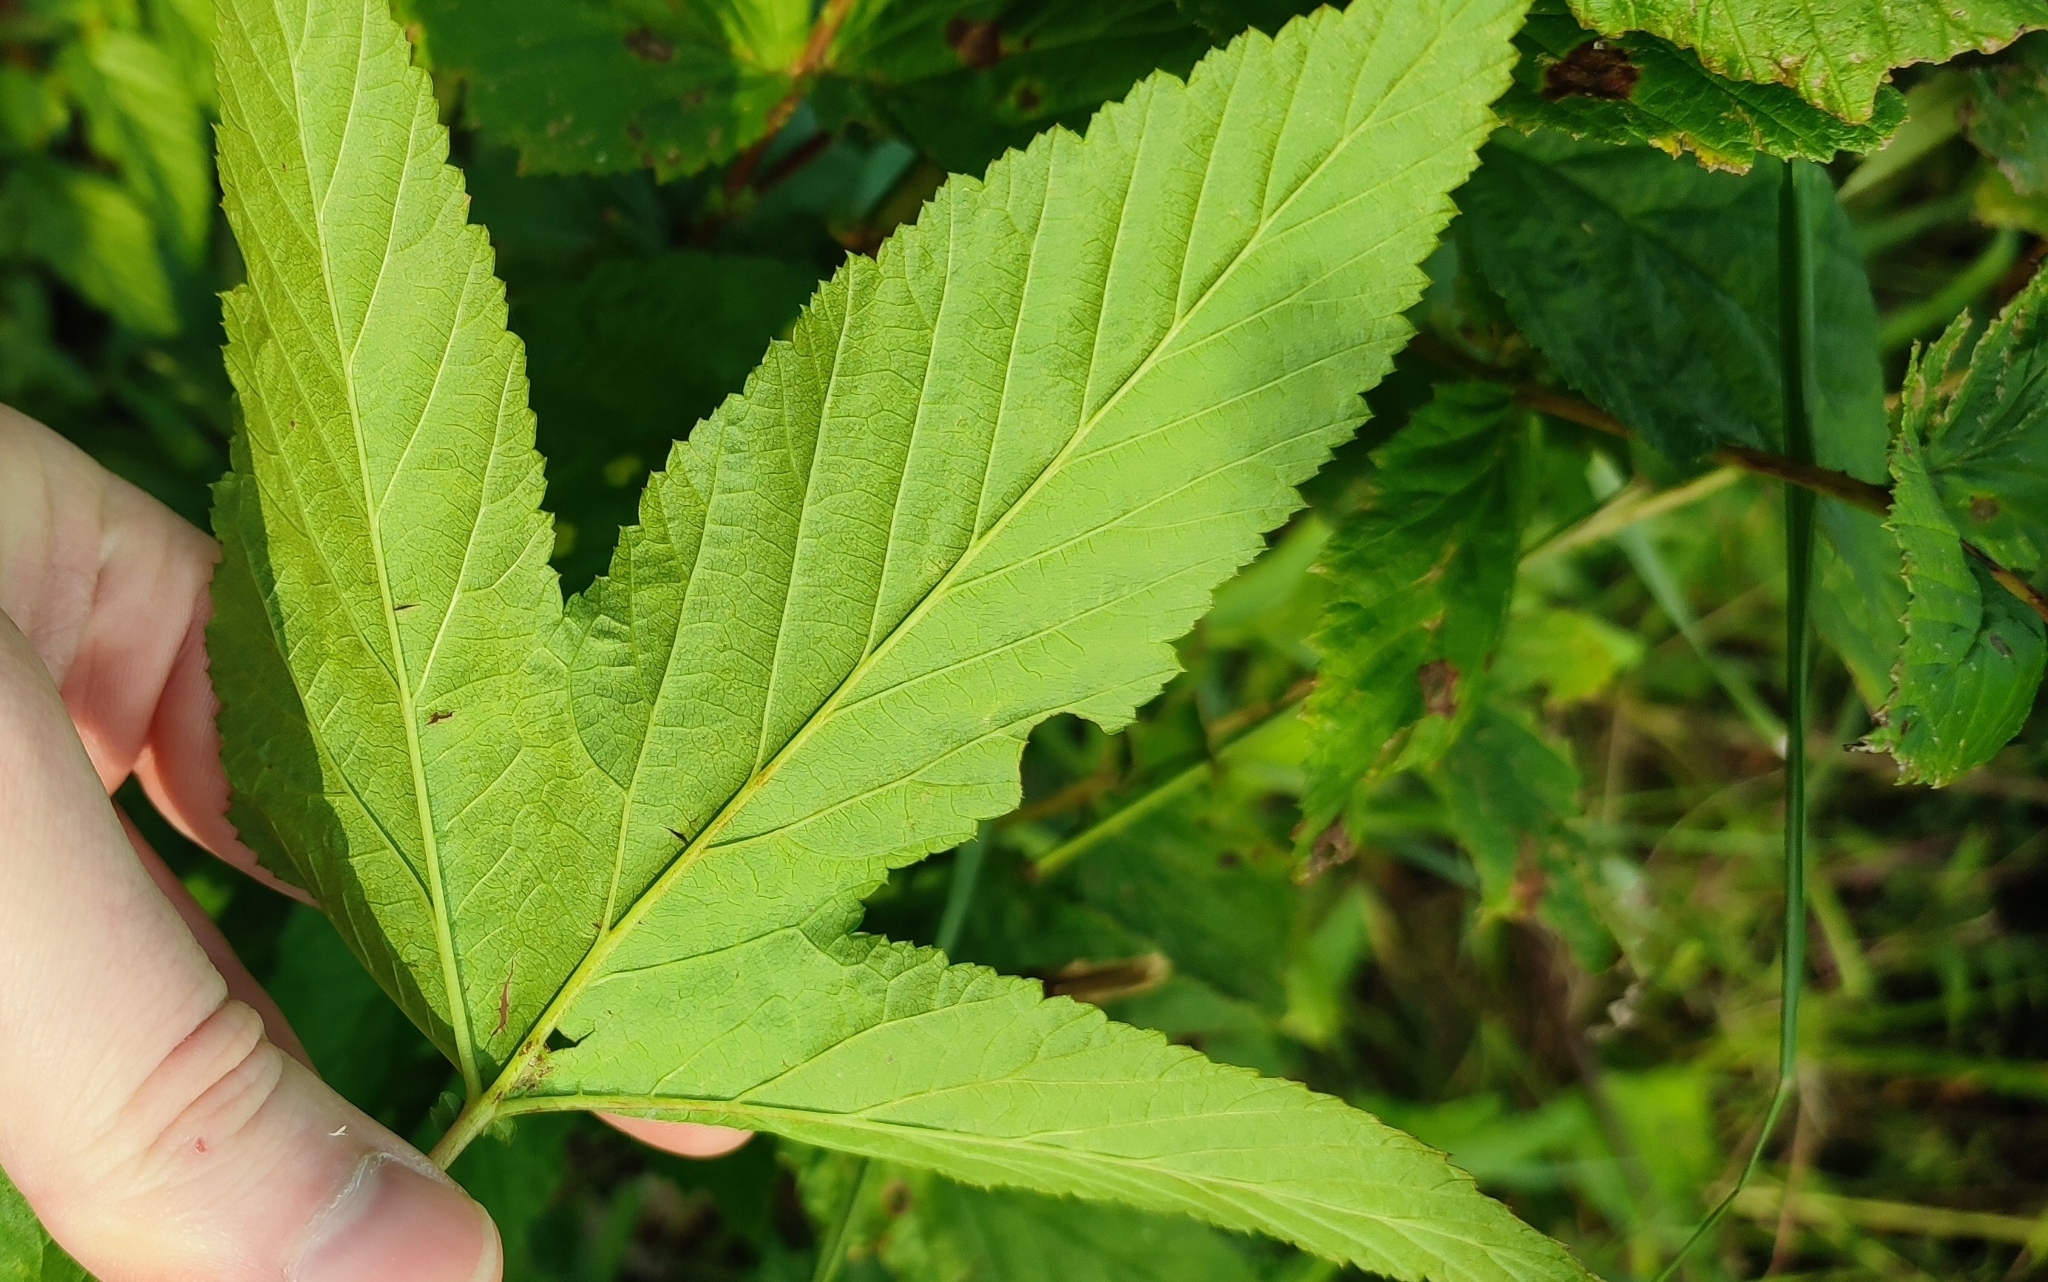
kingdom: Plantae
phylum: Tracheophyta
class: Magnoliopsida
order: Rosales
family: Rosaceae
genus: Filipendula
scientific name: Filipendula ulmaria
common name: Meadowsweet
